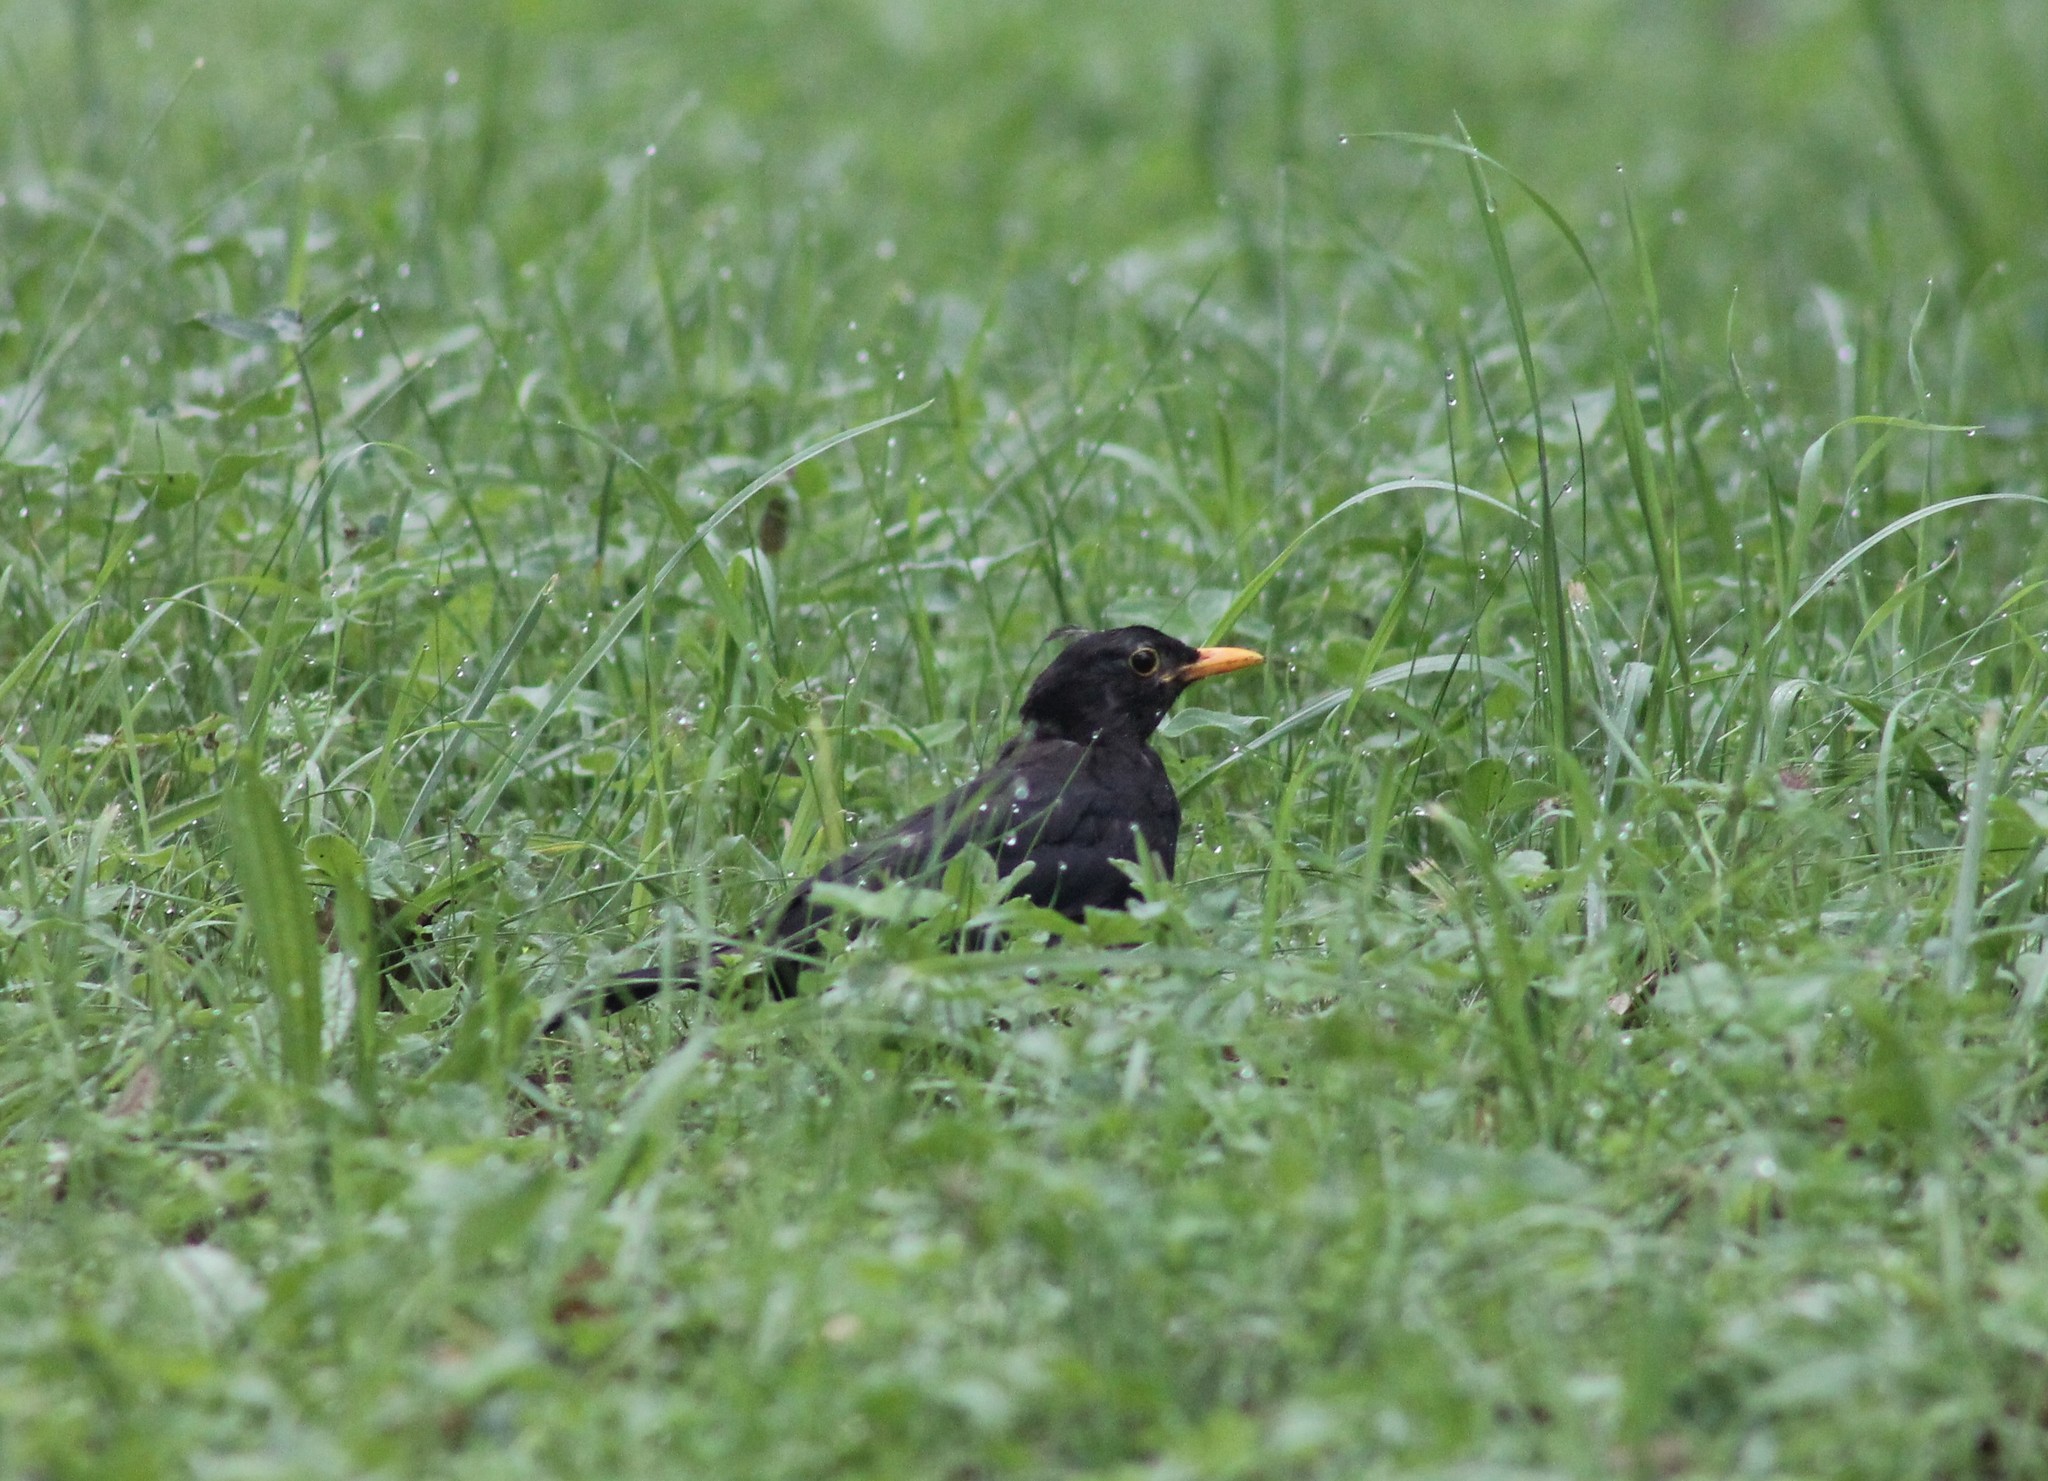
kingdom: Animalia
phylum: Chordata
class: Aves
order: Passeriformes
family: Turdidae
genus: Turdus
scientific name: Turdus merula
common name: Common blackbird
